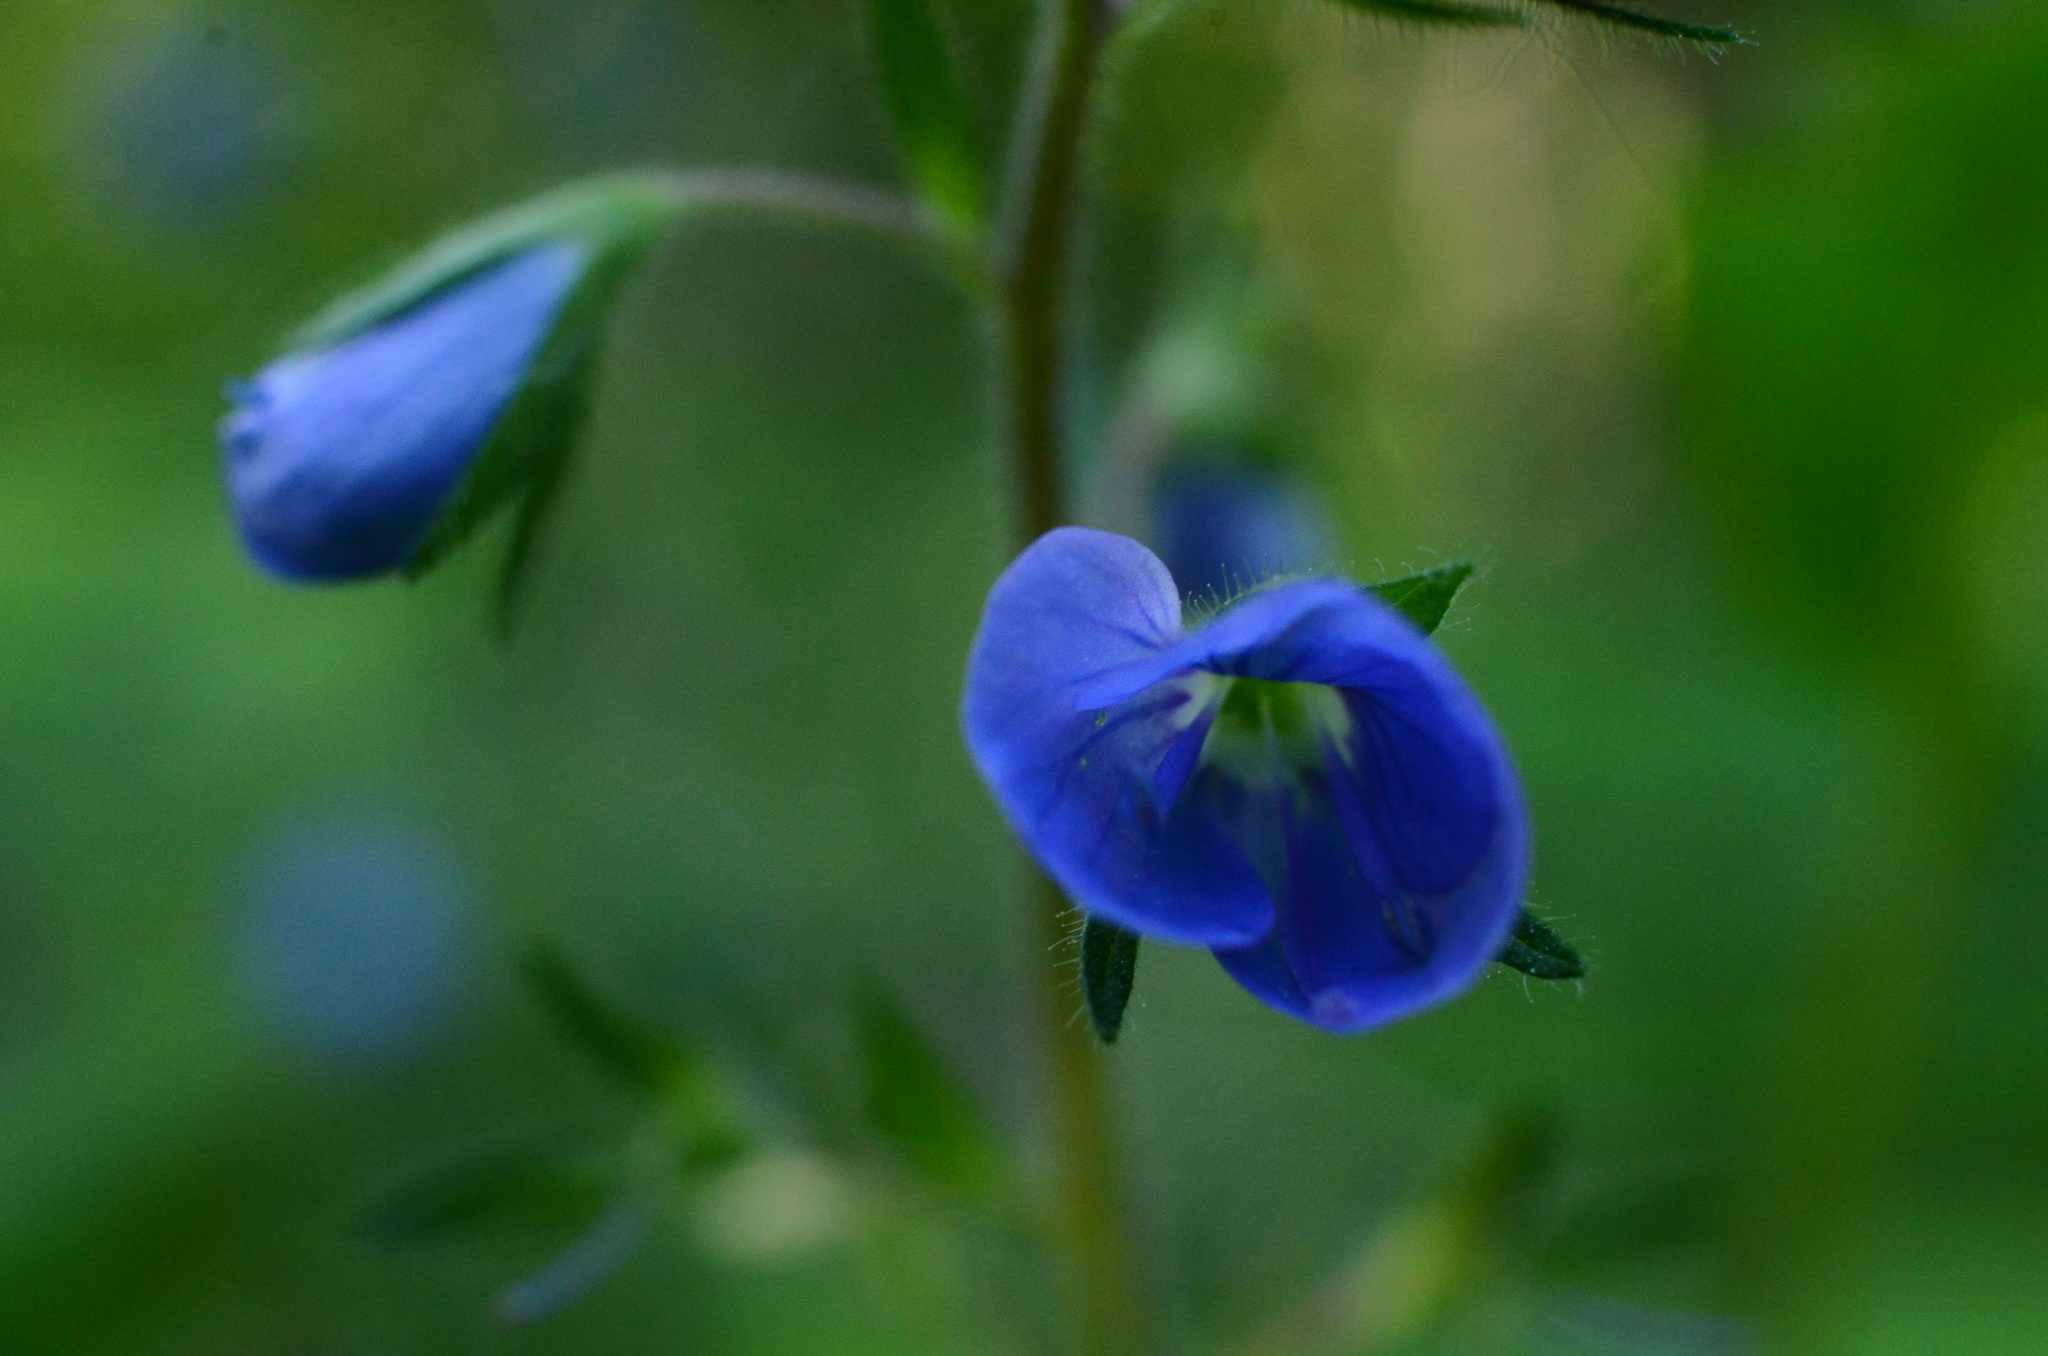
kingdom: Plantae
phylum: Tracheophyta
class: Magnoliopsida
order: Lamiales
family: Plantaginaceae
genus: Veronica
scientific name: Veronica chamaedrys
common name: Germander speedwell
